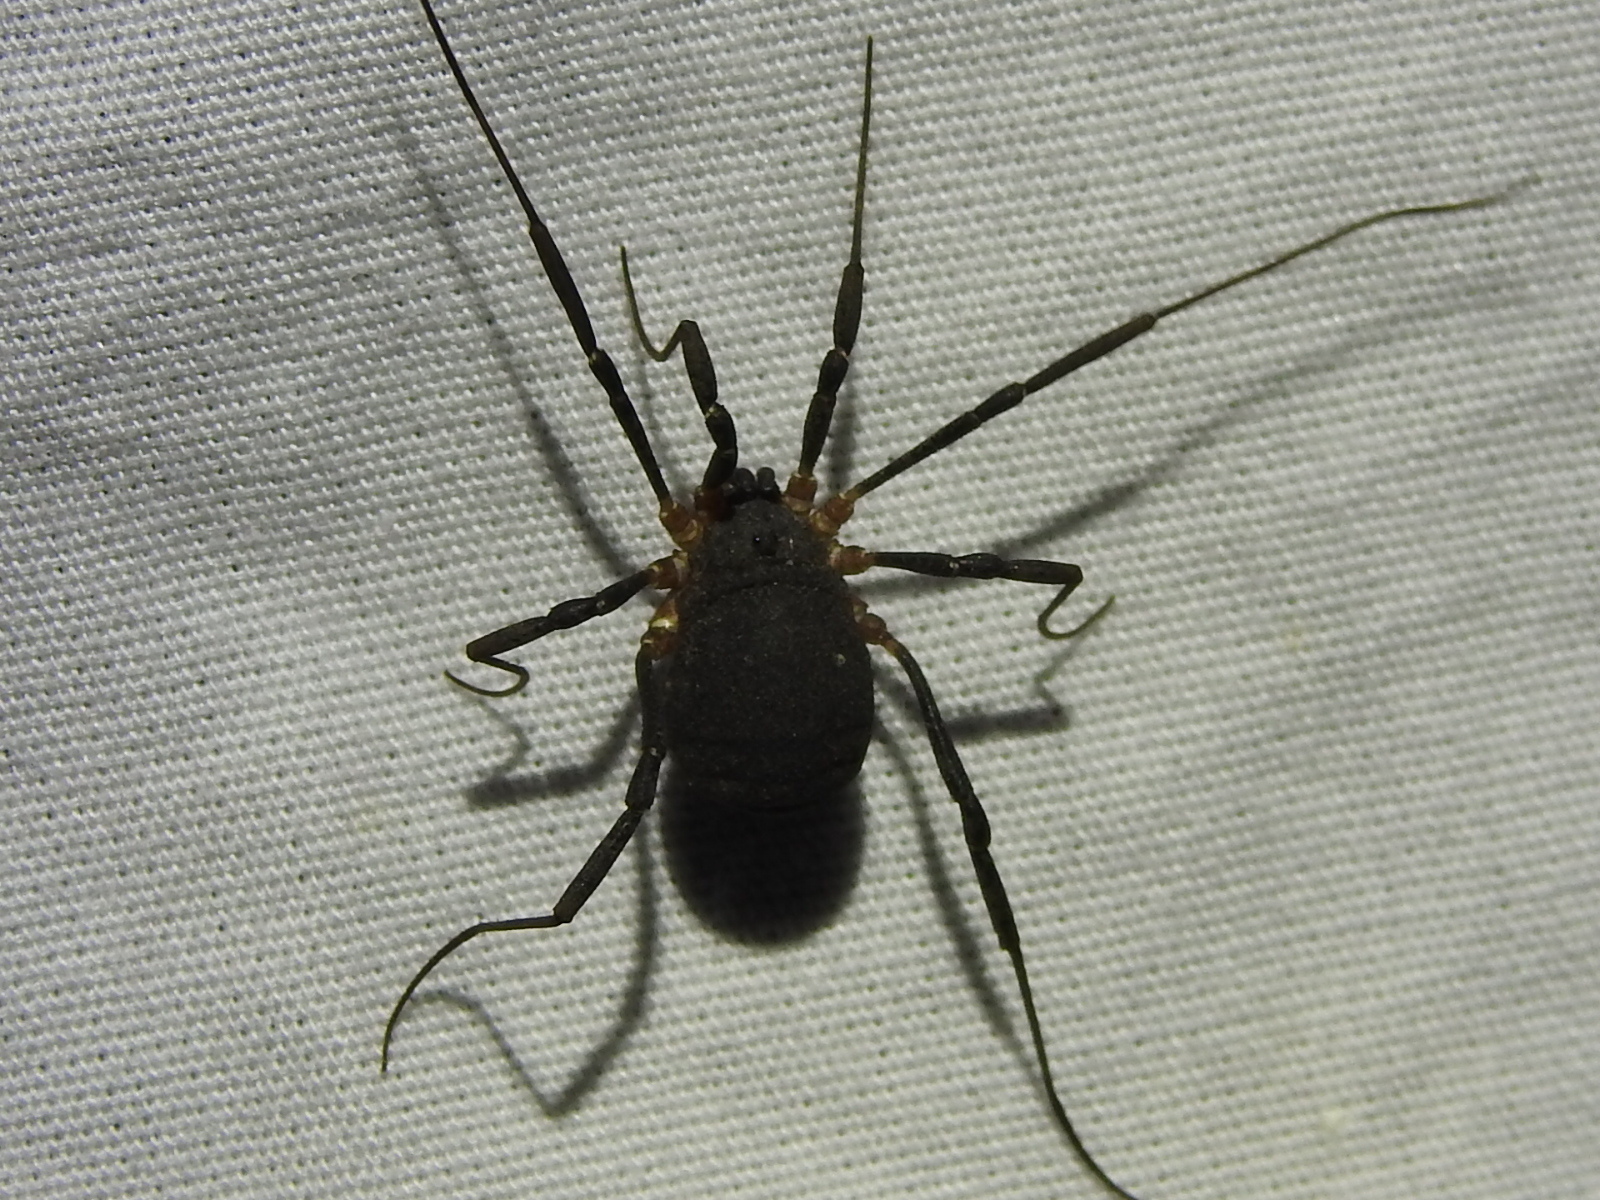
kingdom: Animalia
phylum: Arthropoda
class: Arachnida
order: Opiliones
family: Sclerosomatidae
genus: Eumesosoma
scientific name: Eumesosoma roeweri
